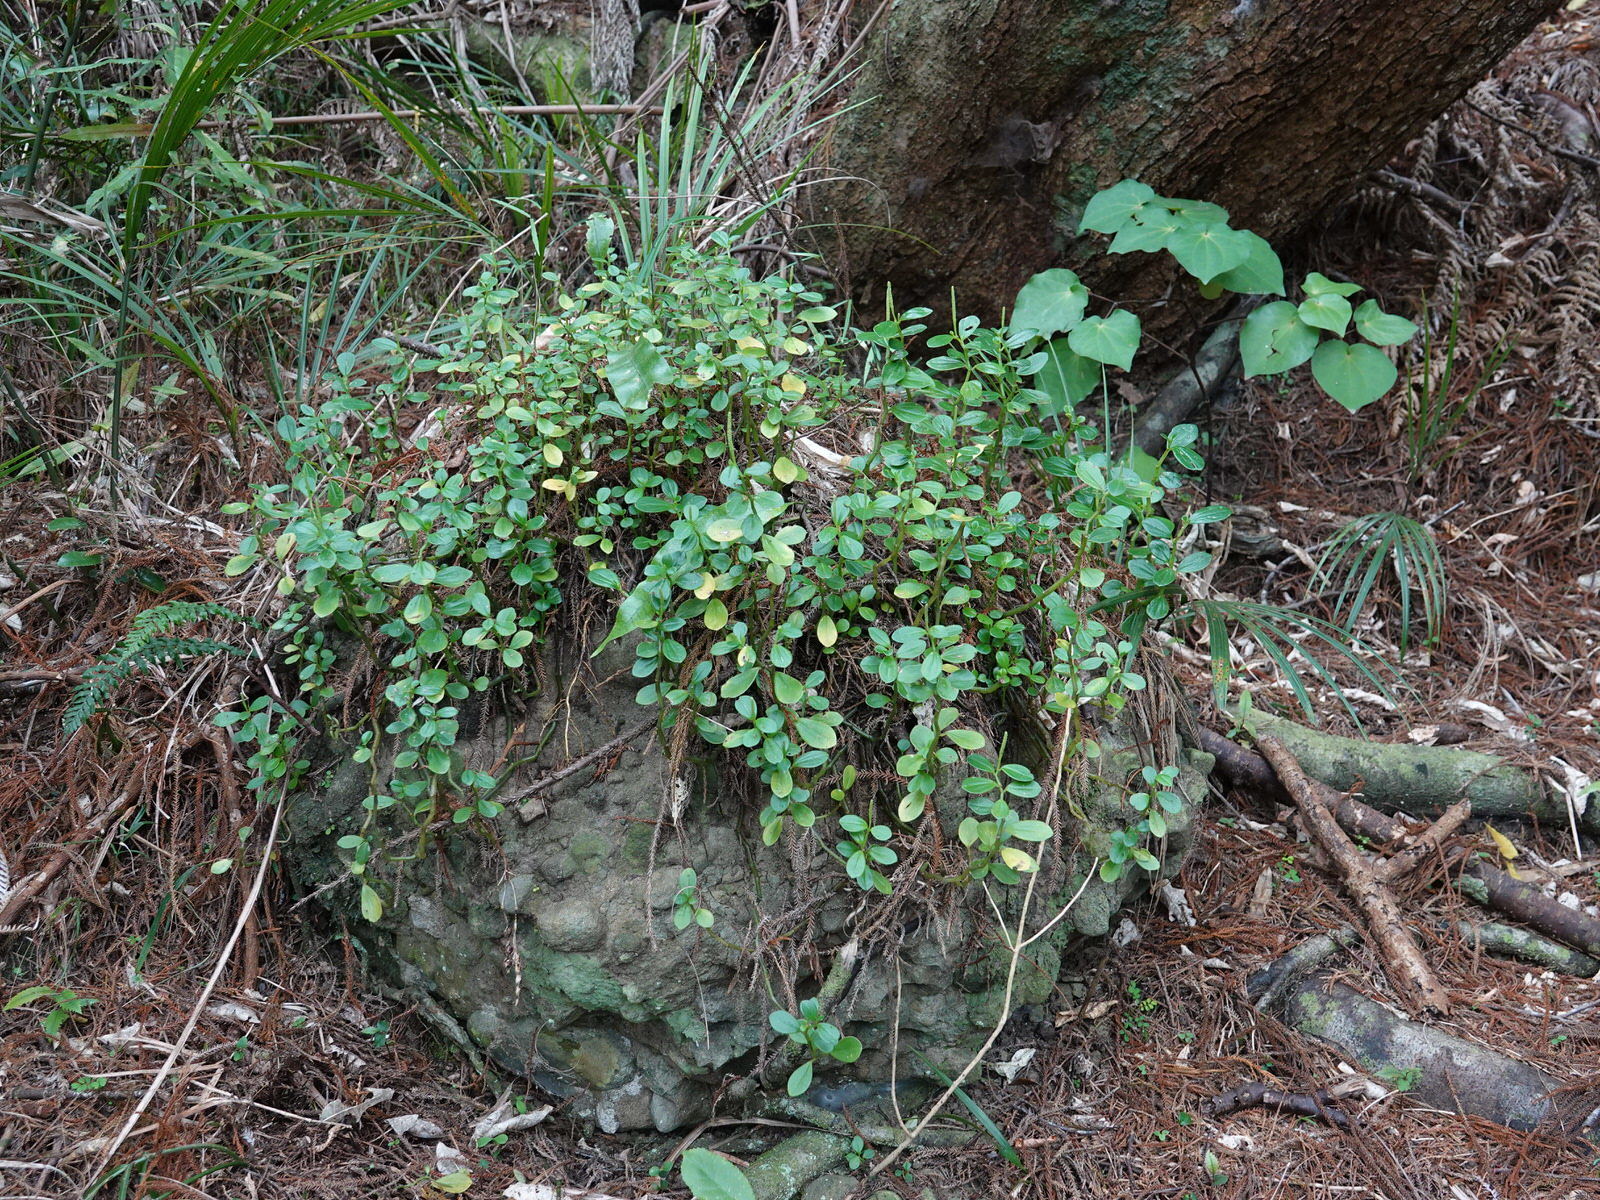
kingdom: Plantae
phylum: Tracheophyta
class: Magnoliopsida
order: Piperales
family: Piperaceae
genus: Peperomia
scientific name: Peperomia urvilleana
